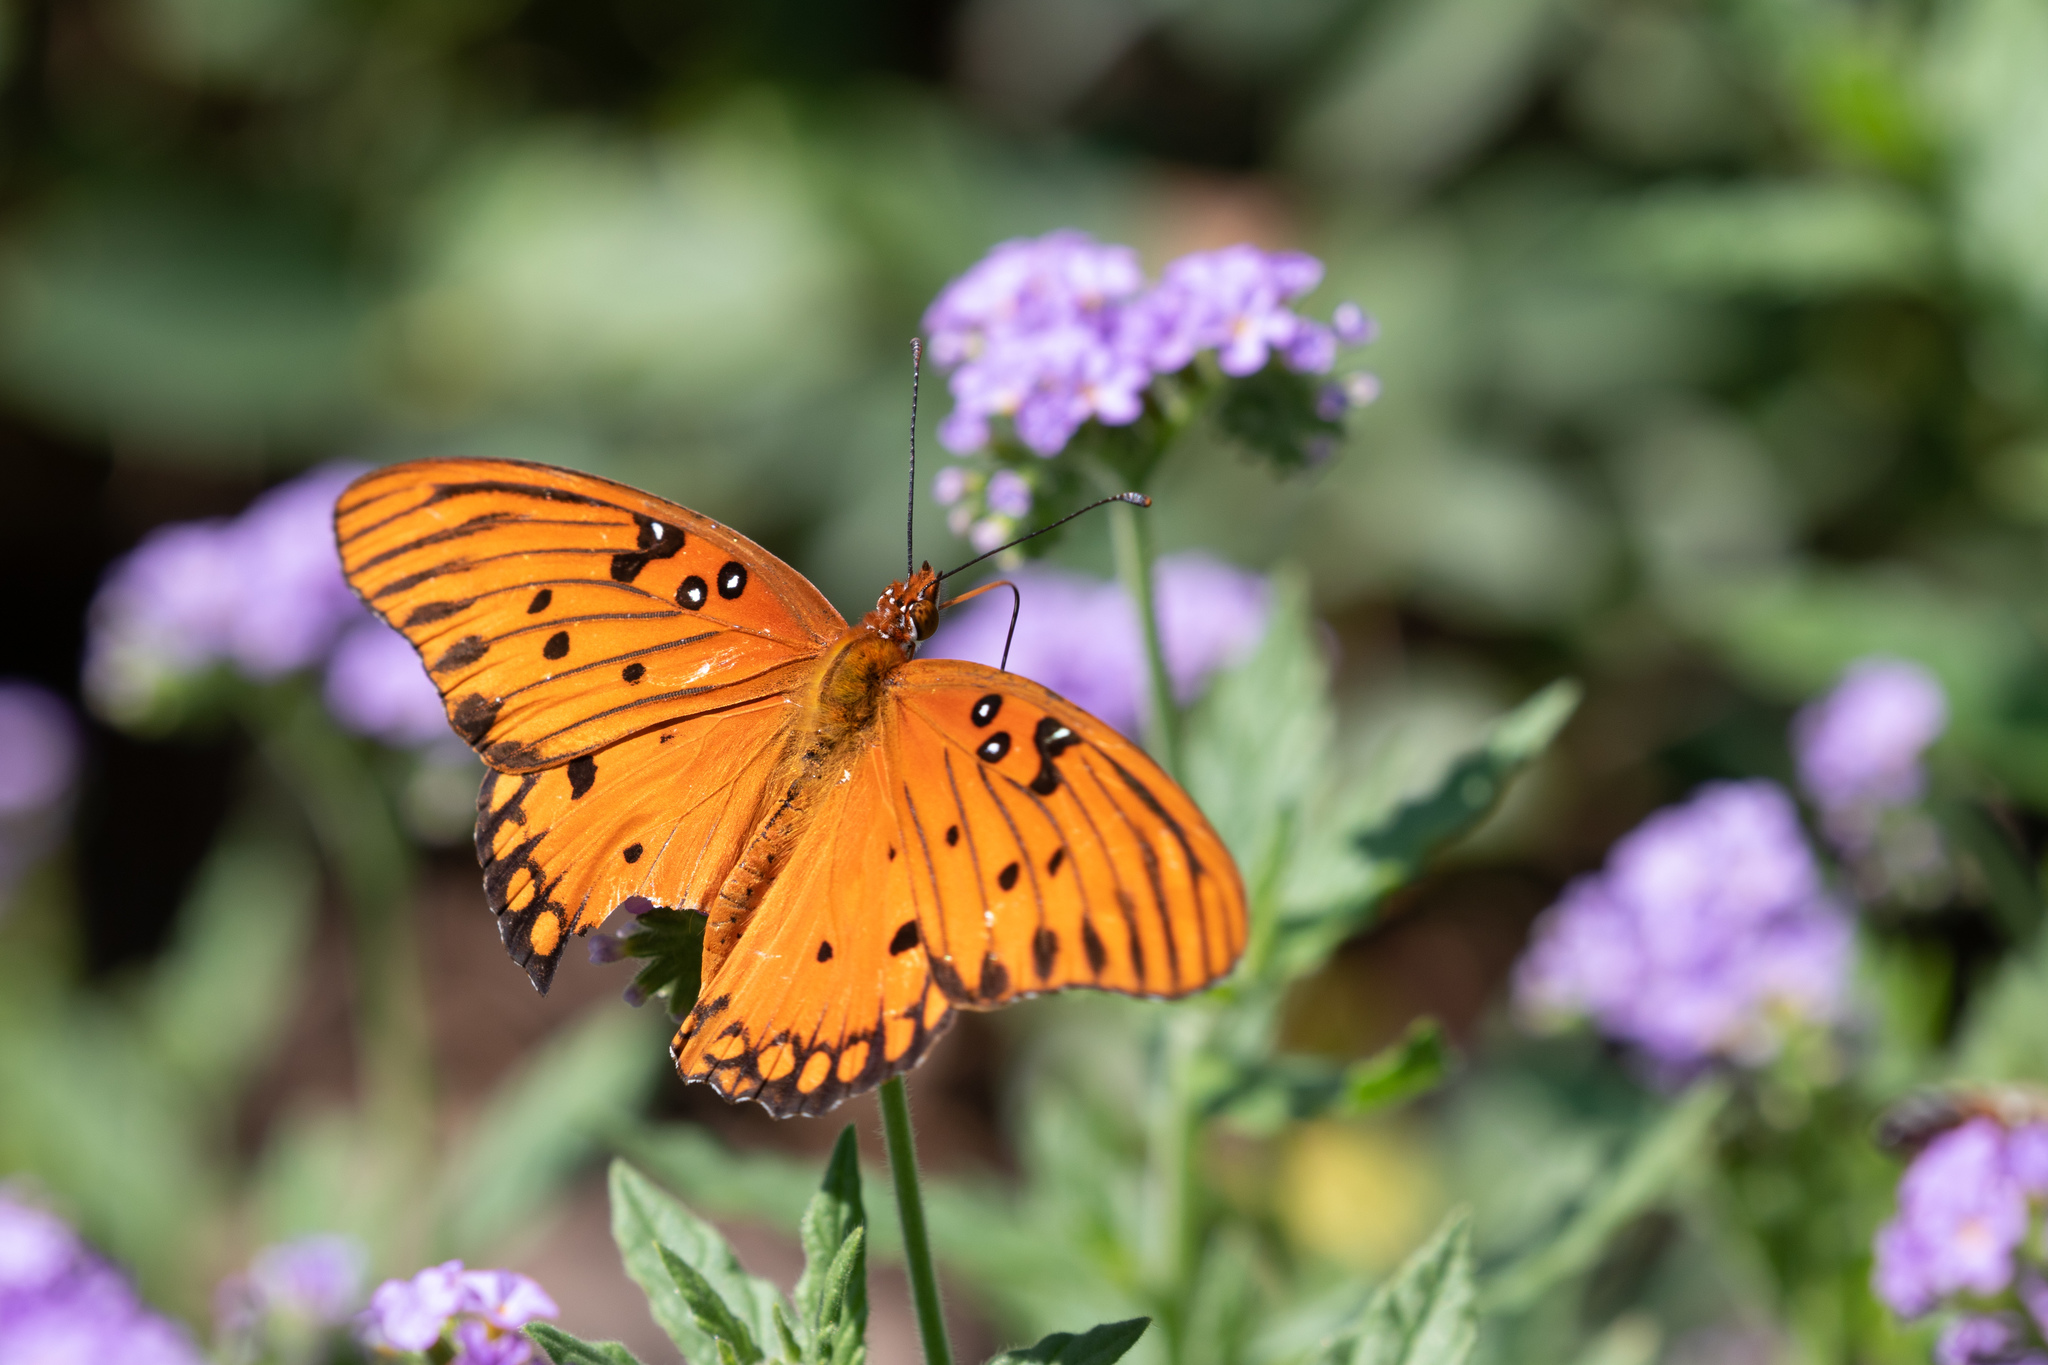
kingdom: Animalia
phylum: Arthropoda
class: Insecta
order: Lepidoptera
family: Nymphalidae
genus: Dione
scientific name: Dione vanillae
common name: Gulf fritillary
